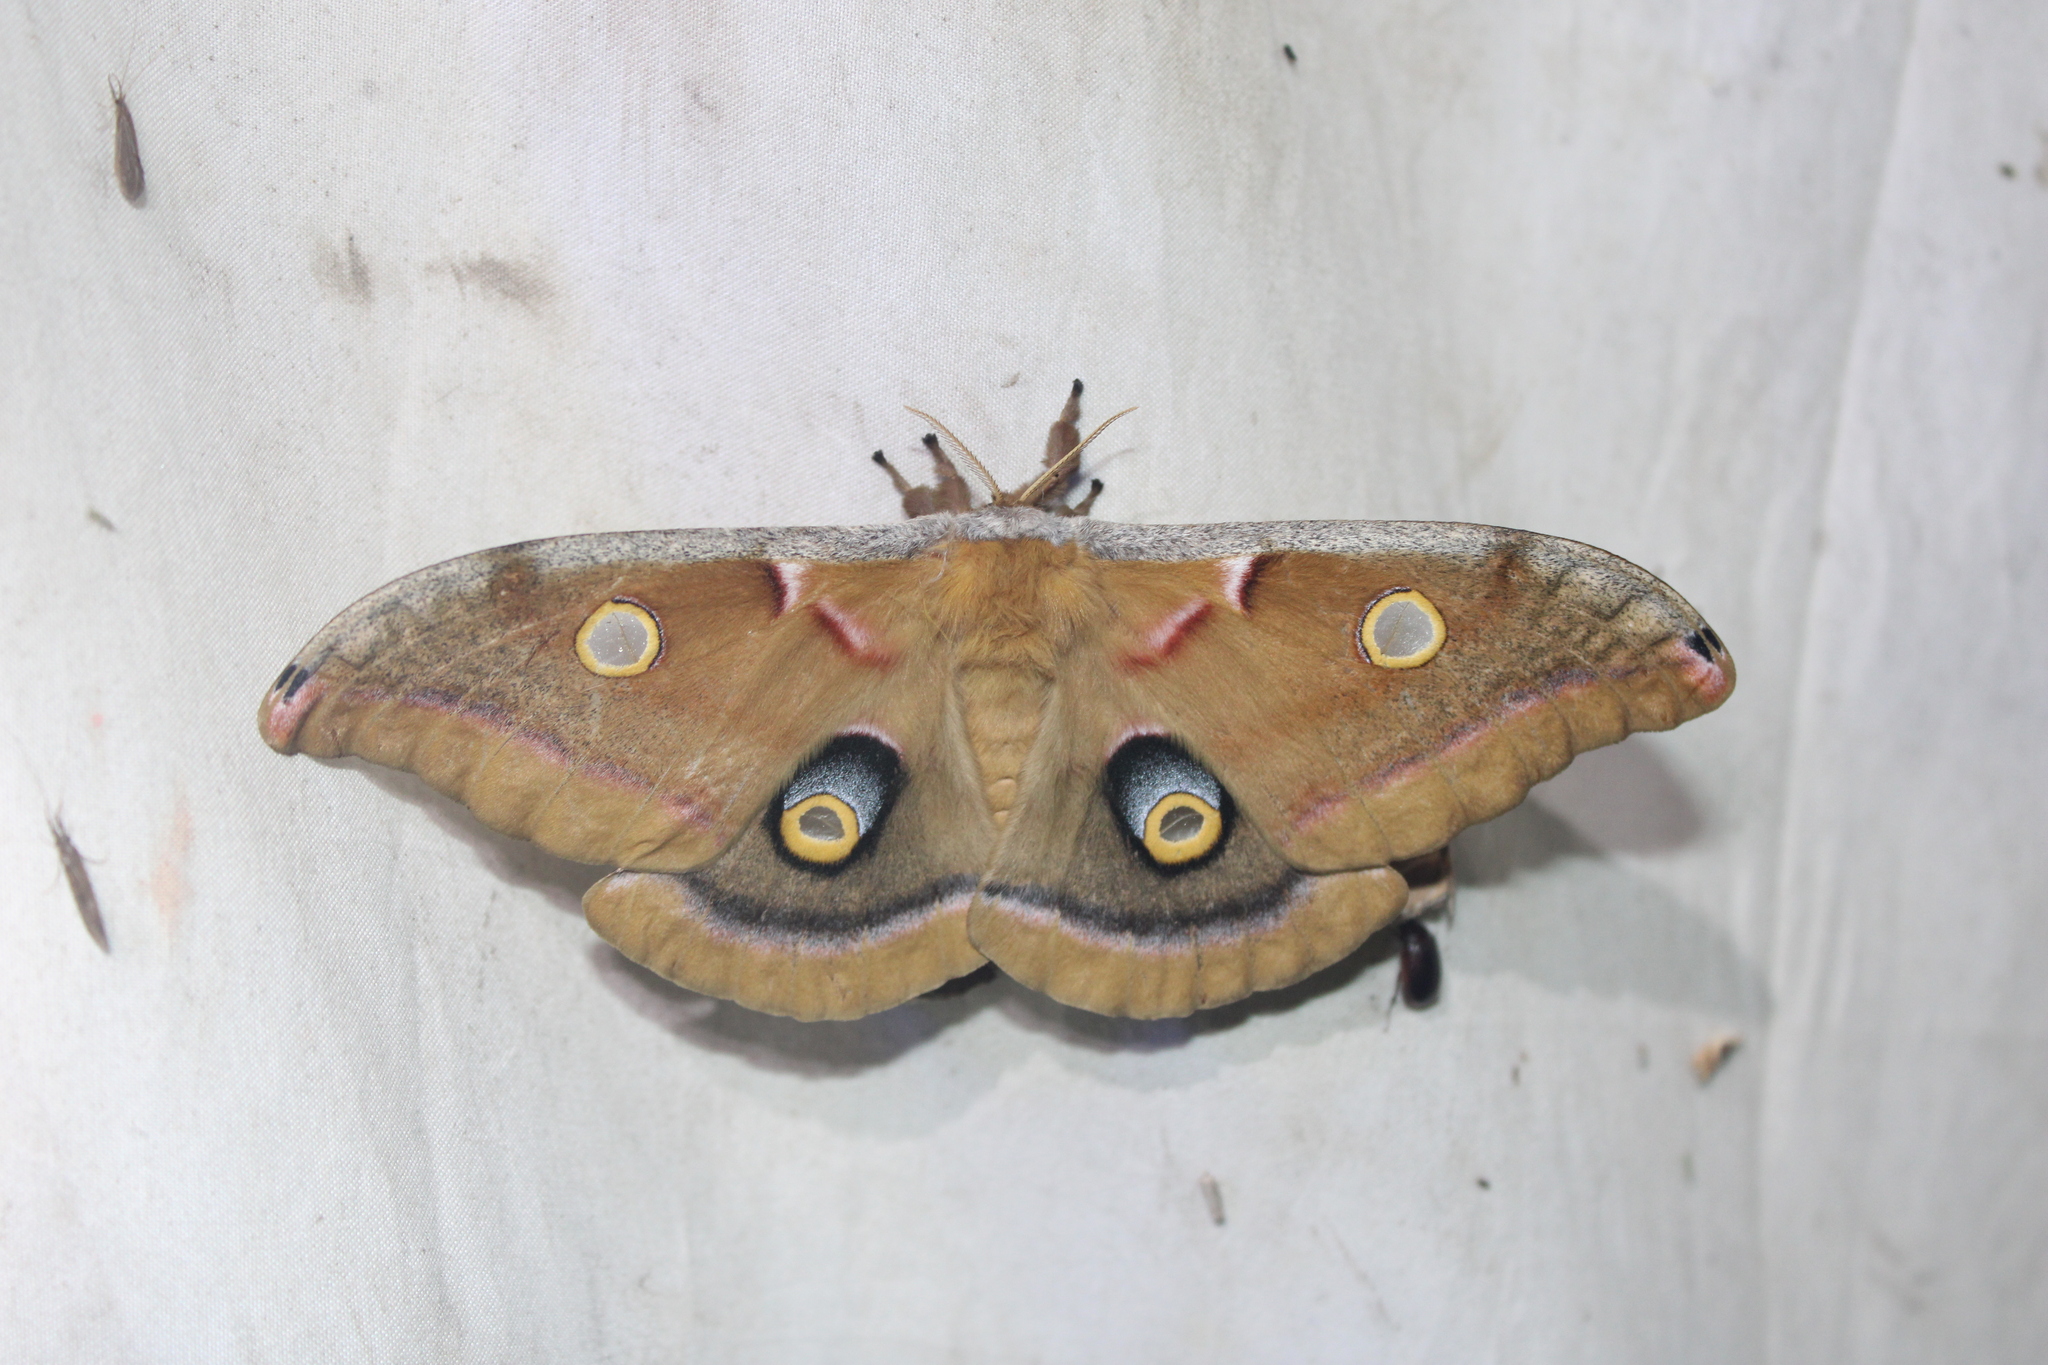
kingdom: Animalia
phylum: Arthropoda
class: Insecta
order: Lepidoptera
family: Saturniidae
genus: Antheraea
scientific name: Antheraea polyphemus
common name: Polyphemus moth
